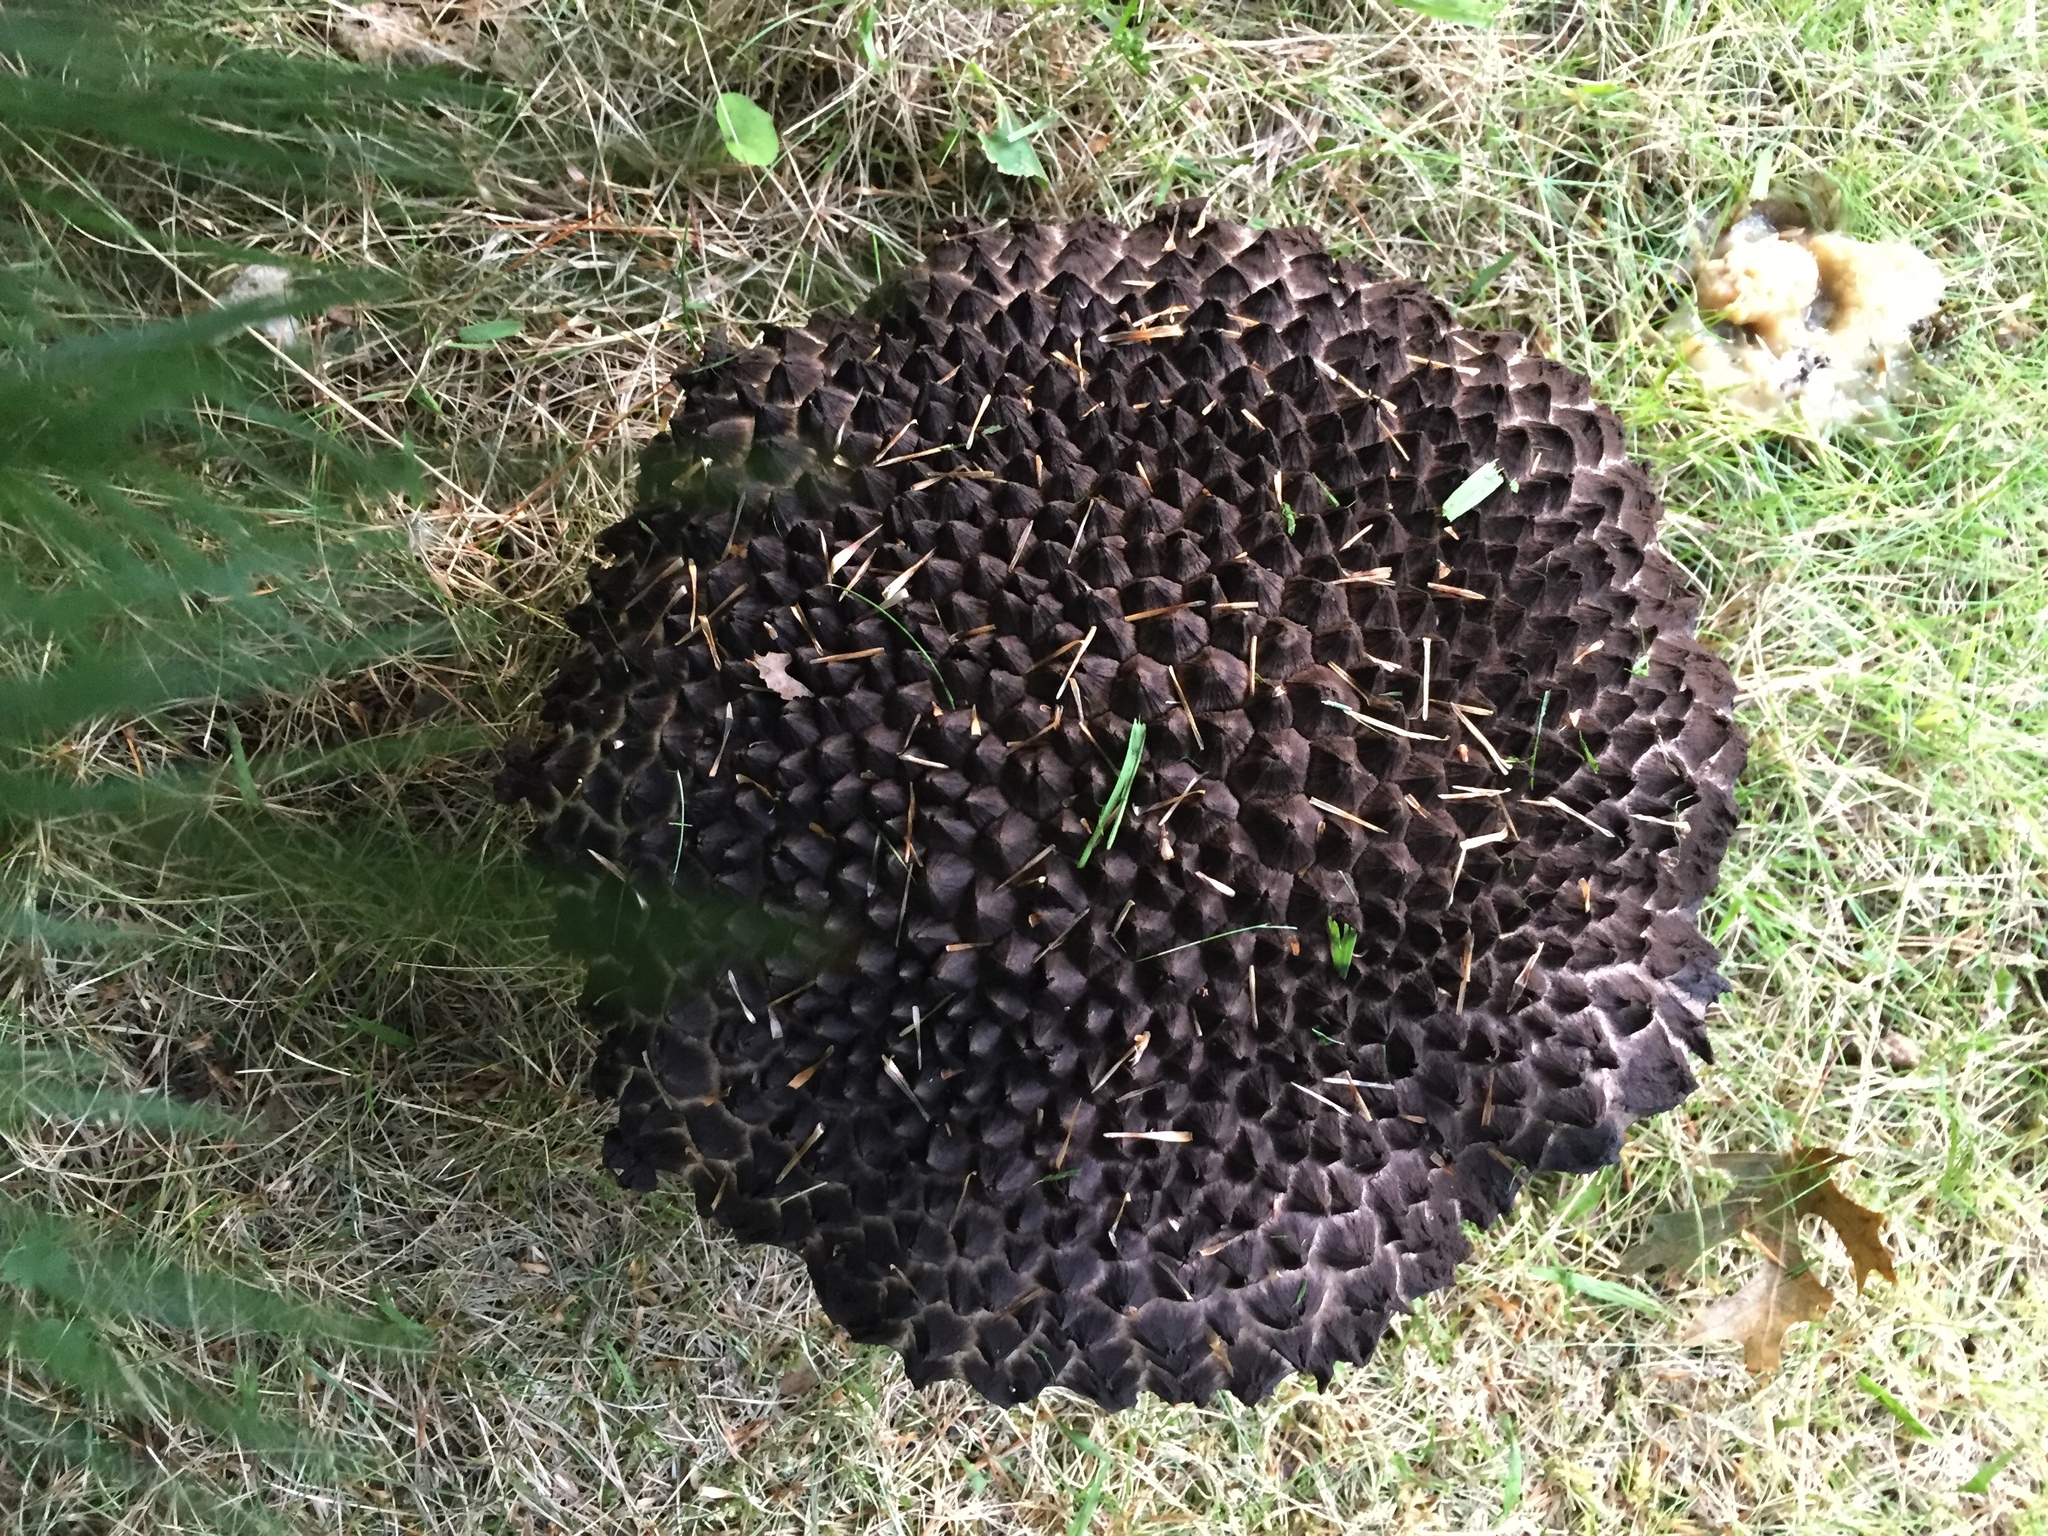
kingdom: Fungi
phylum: Basidiomycota
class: Agaricomycetes
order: Boletales
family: Boletaceae
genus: Strobilomyces
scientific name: Strobilomyces strobilaceus
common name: Old man of the woods
